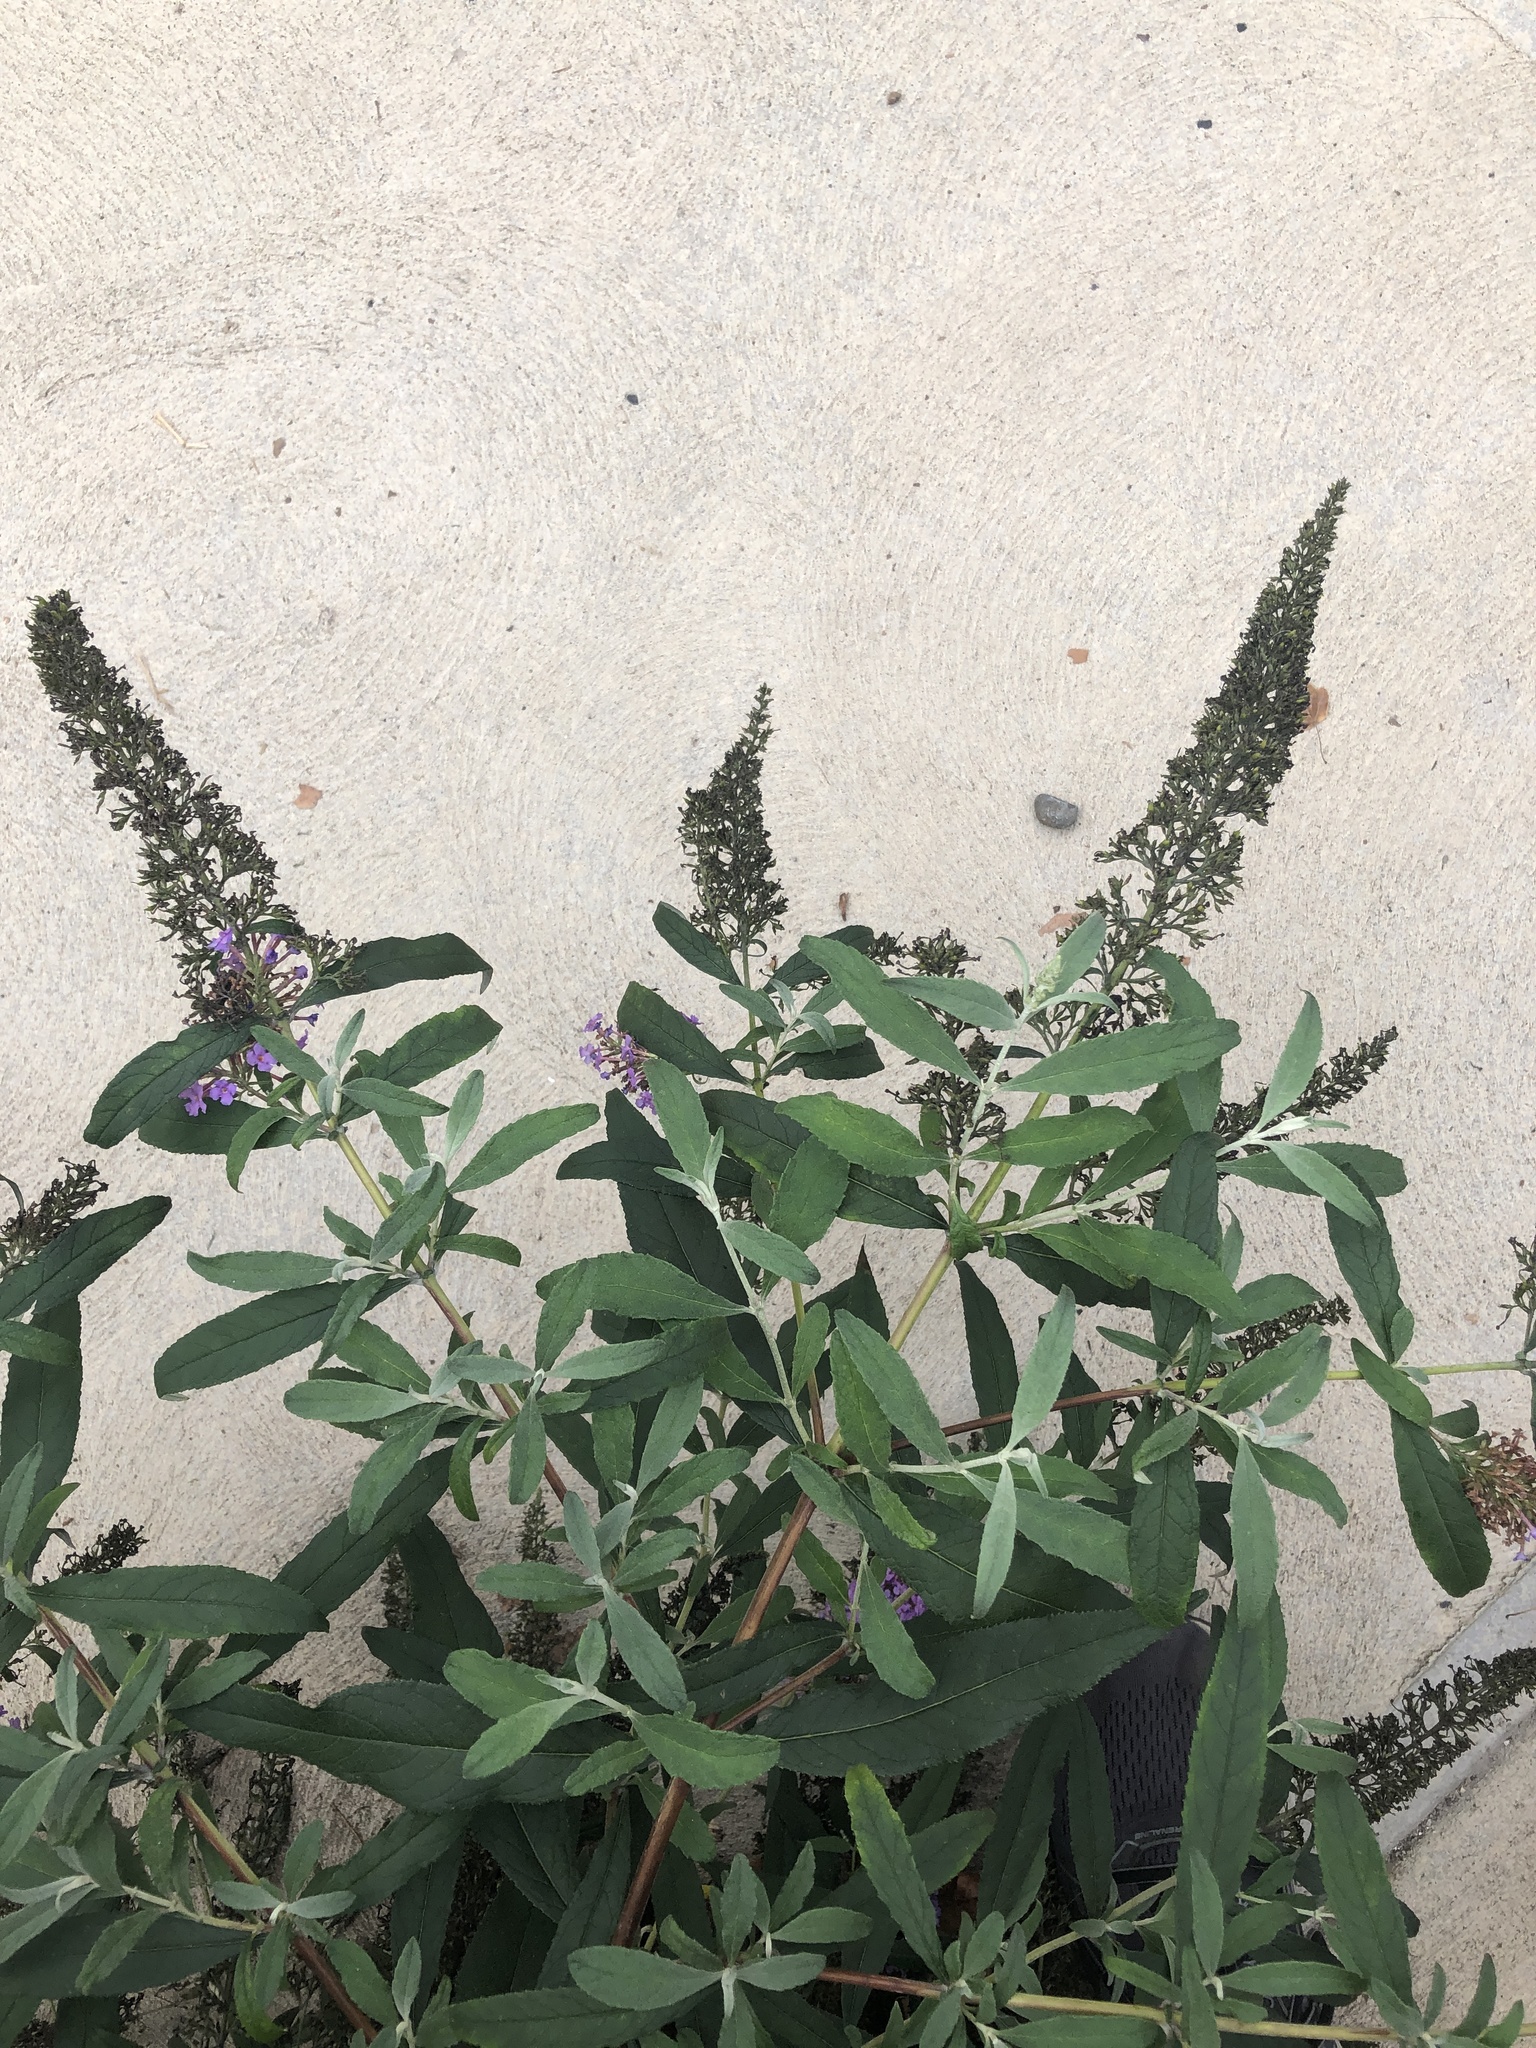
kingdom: Plantae
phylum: Tracheophyta
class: Magnoliopsida
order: Lamiales
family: Scrophulariaceae
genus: Buddleja
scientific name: Buddleja davidii
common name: Butterfly-bush
